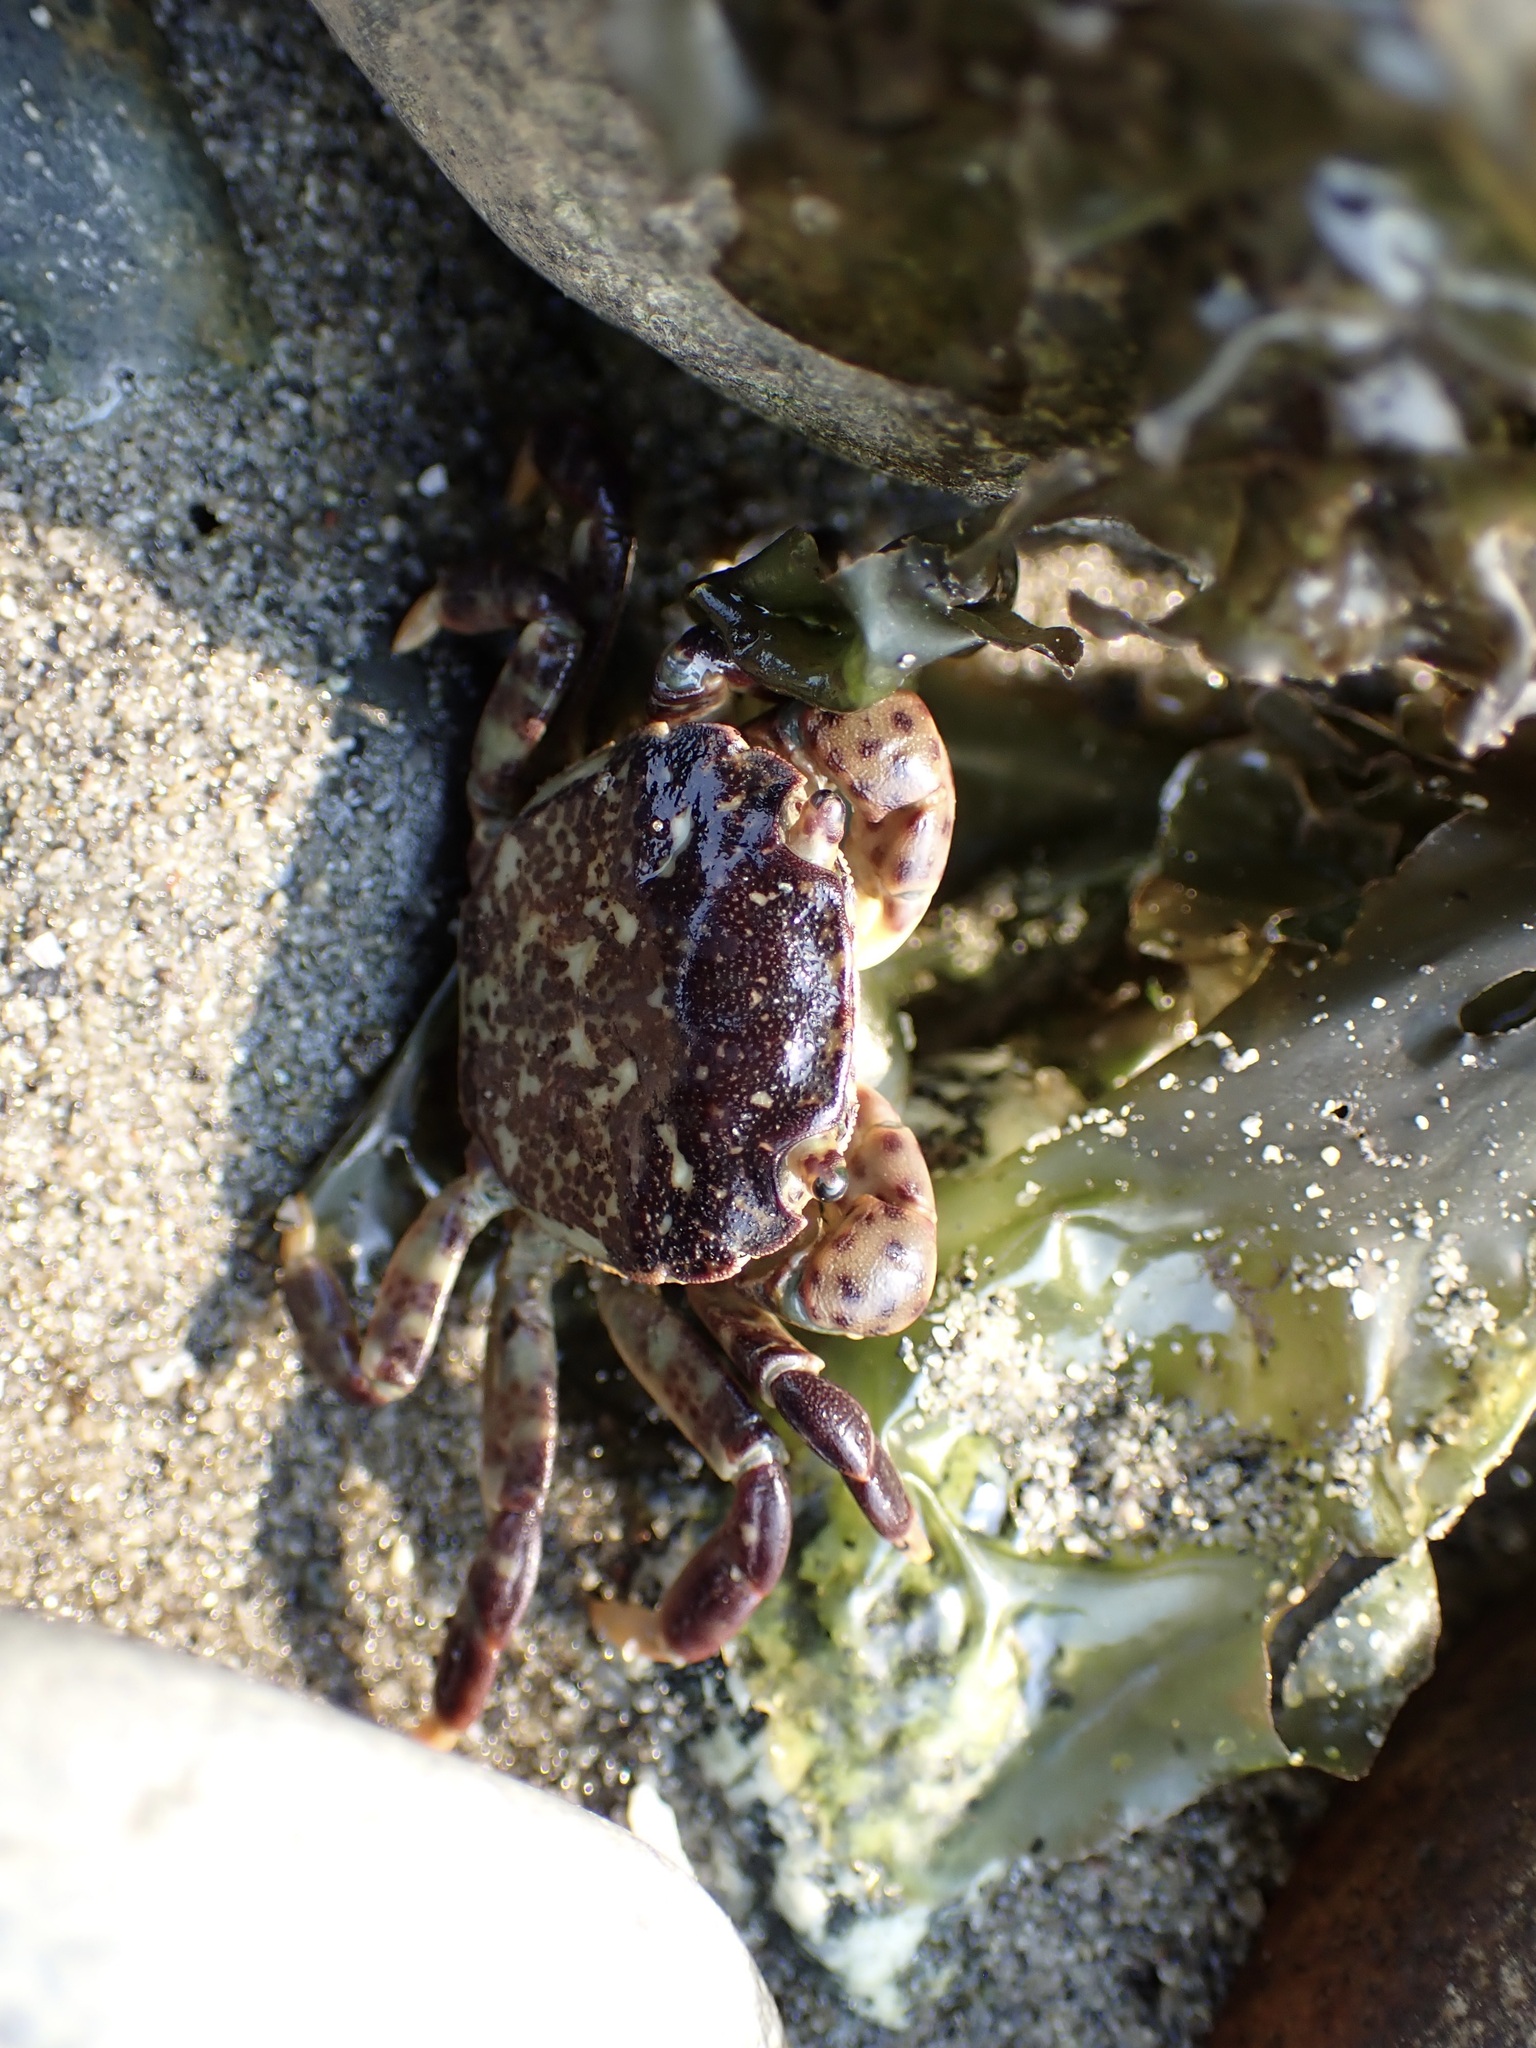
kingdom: Animalia
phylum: Arthropoda
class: Malacostraca
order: Decapoda
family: Varunidae
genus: Hemigrapsus
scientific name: Hemigrapsus nudus
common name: Purple shore crab
